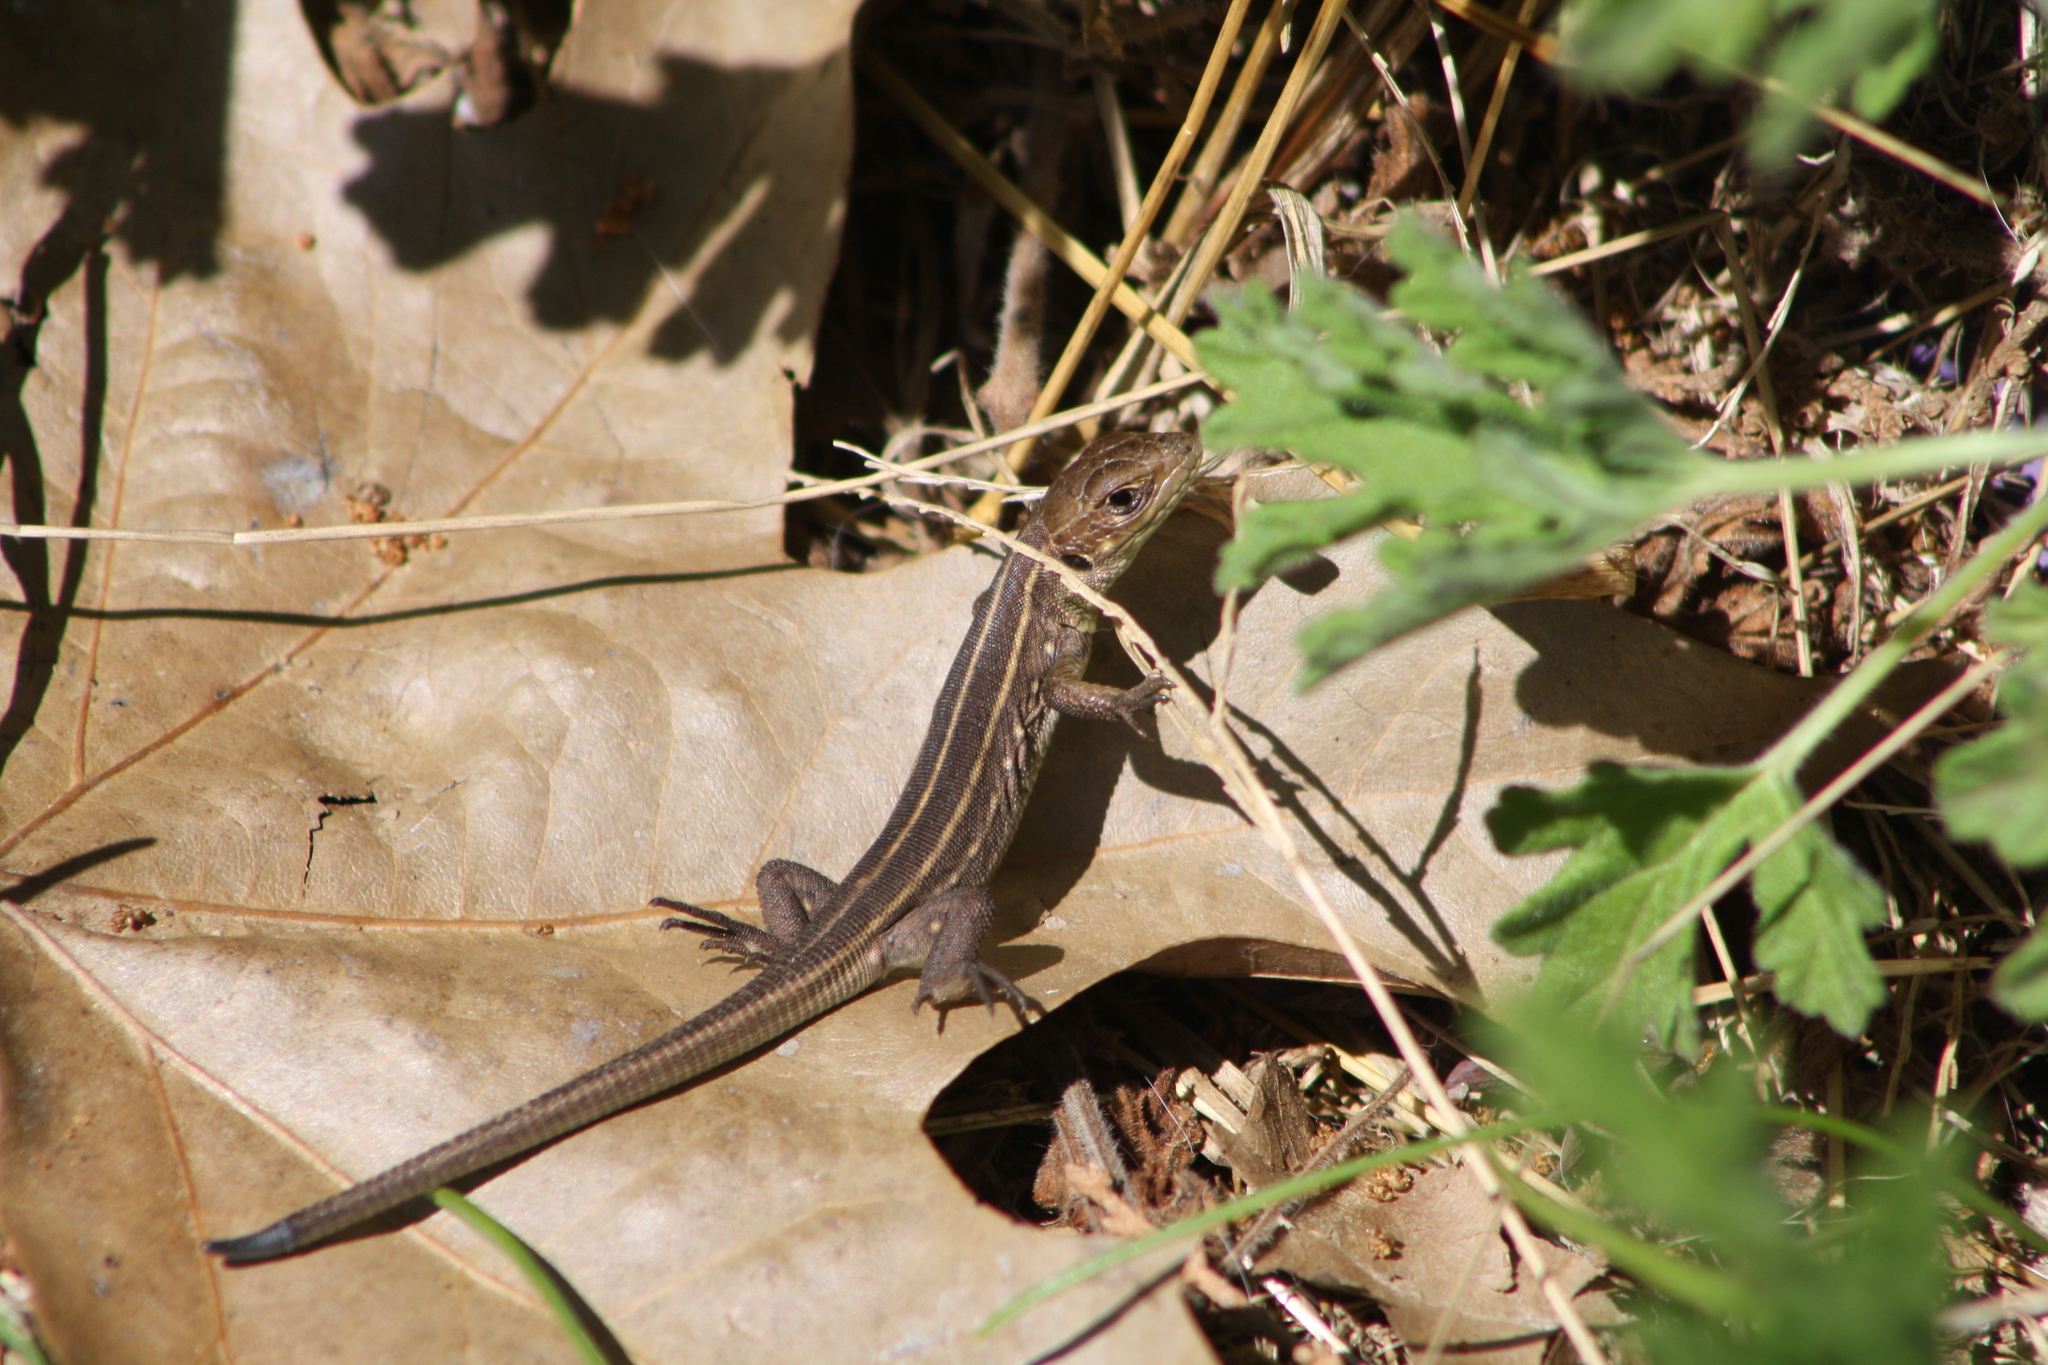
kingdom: Animalia
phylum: Chordata
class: Squamata
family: Lacertidae
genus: Lacerta
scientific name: Lacerta trilineata
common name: Balkan green lizard
